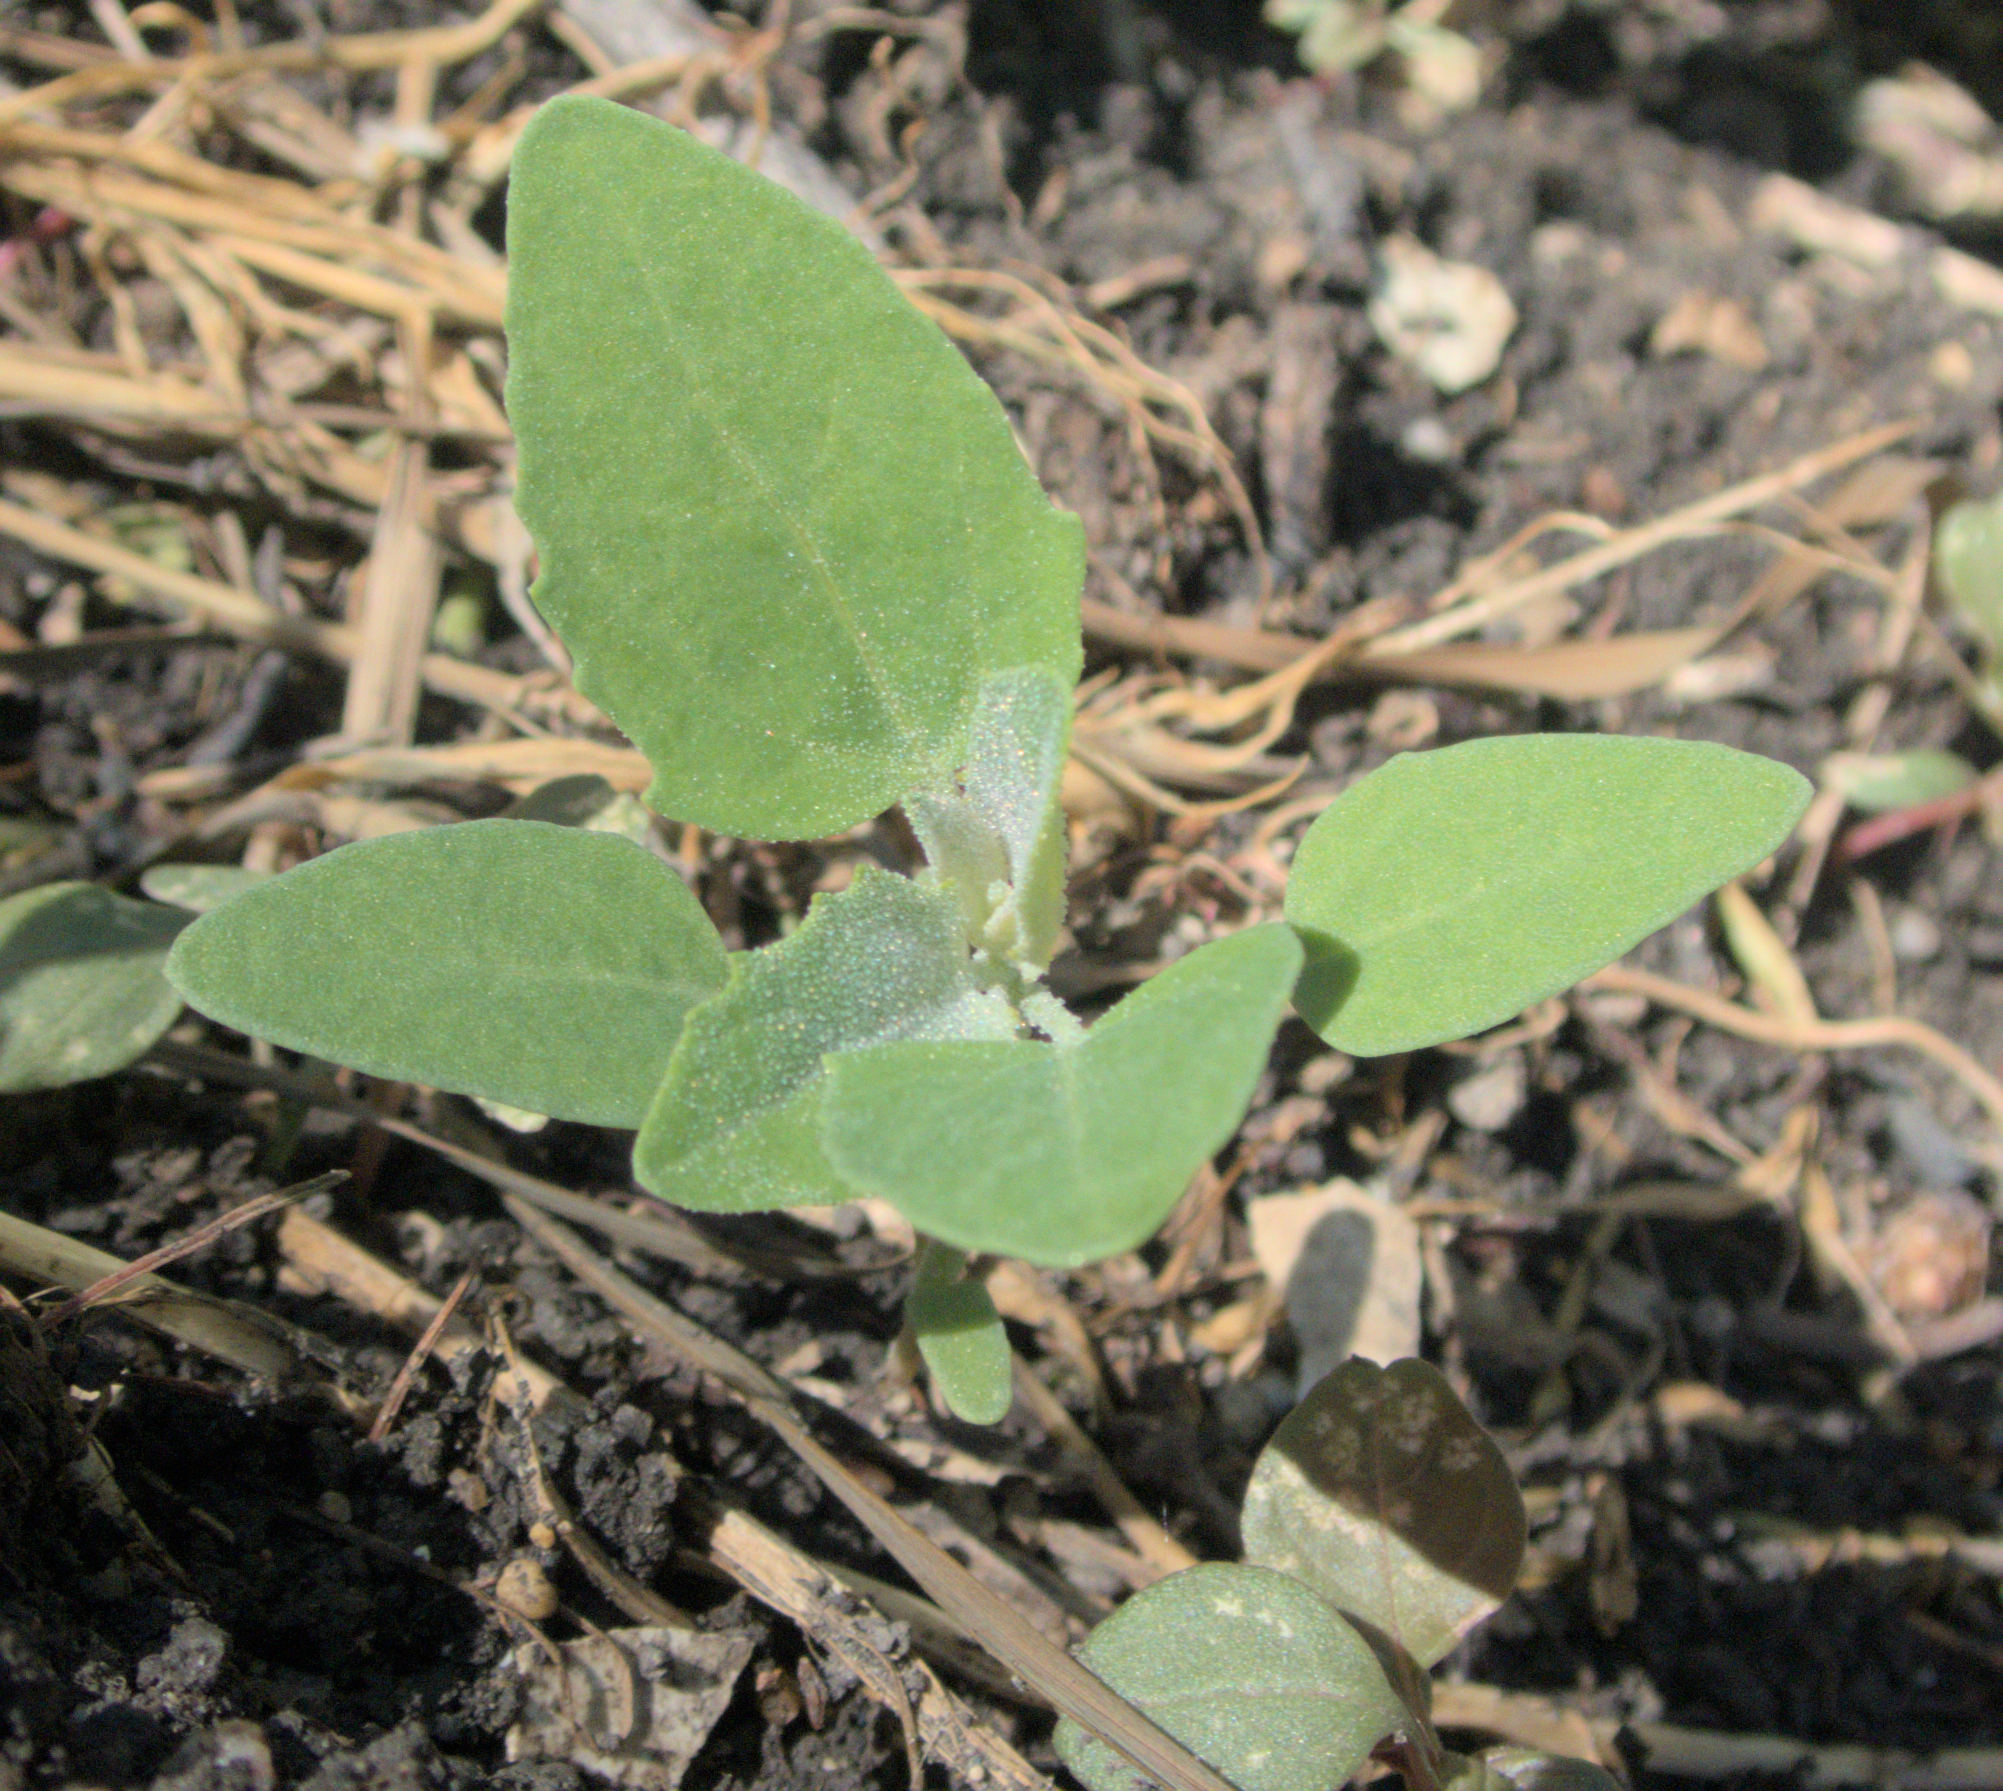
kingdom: Plantae
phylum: Tracheophyta
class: Magnoliopsida
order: Caryophyllales
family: Amaranthaceae
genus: Chenopodium
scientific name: Chenopodium album
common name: Fat-hen
